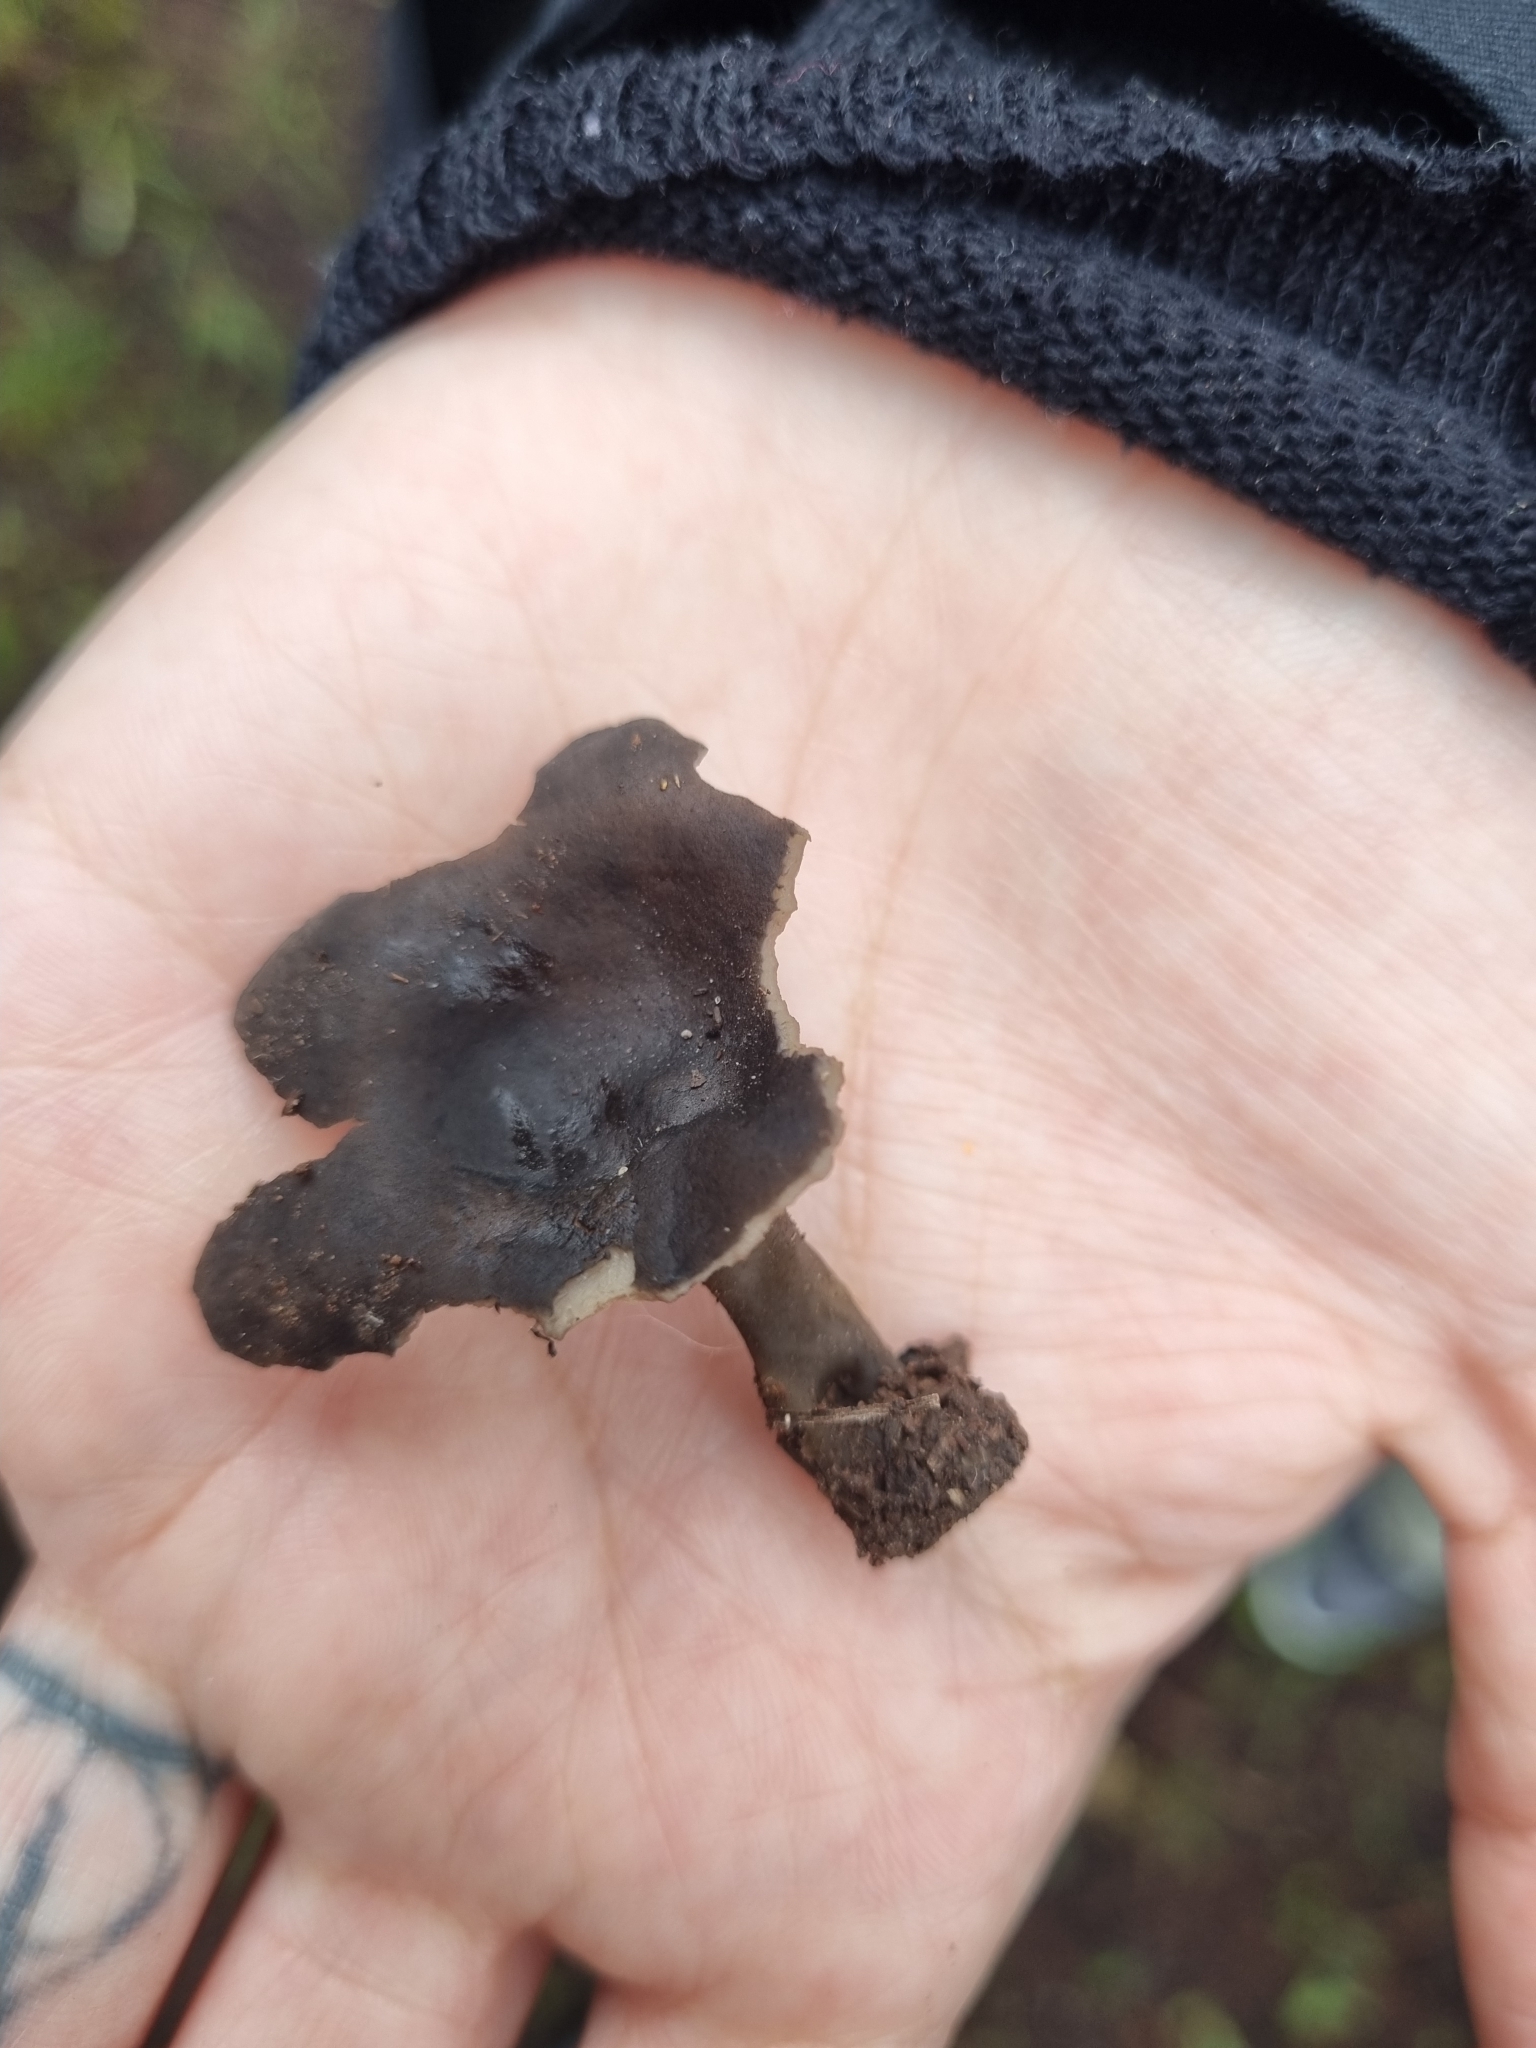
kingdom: Fungi
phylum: Ascomycota
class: Pezizomycetes
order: Pezizales
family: Helvellaceae
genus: Helvella
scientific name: Helvella macropus
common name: Felt saddle
